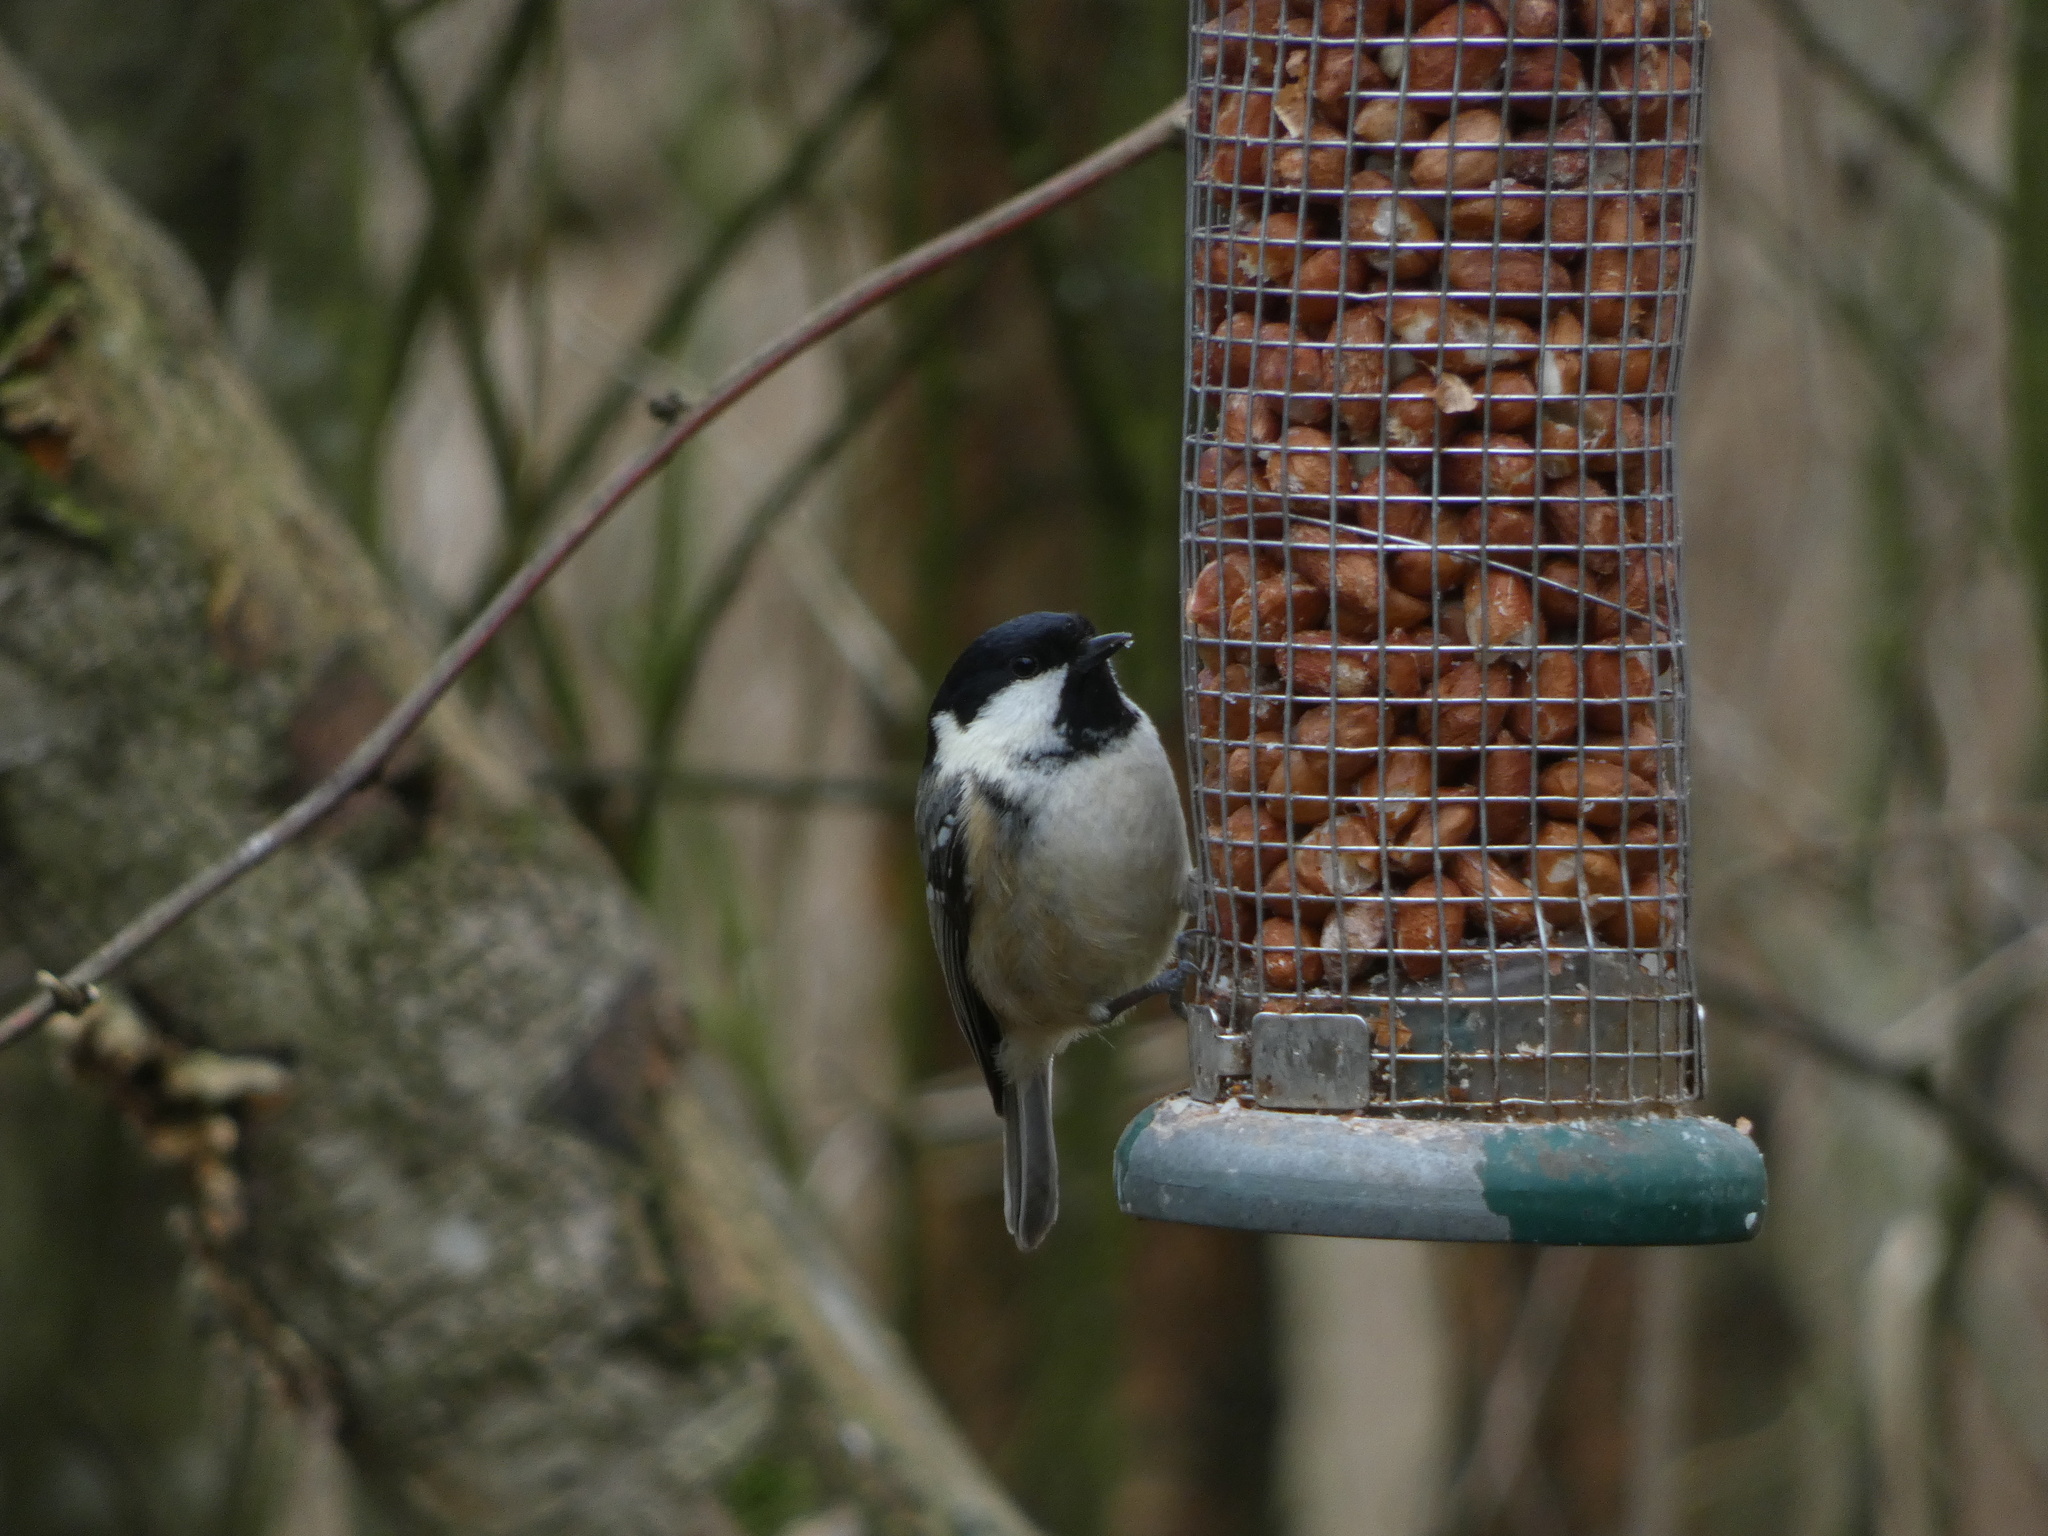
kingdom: Animalia
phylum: Chordata
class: Aves
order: Passeriformes
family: Paridae
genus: Periparus
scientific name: Periparus ater
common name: Coal tit
